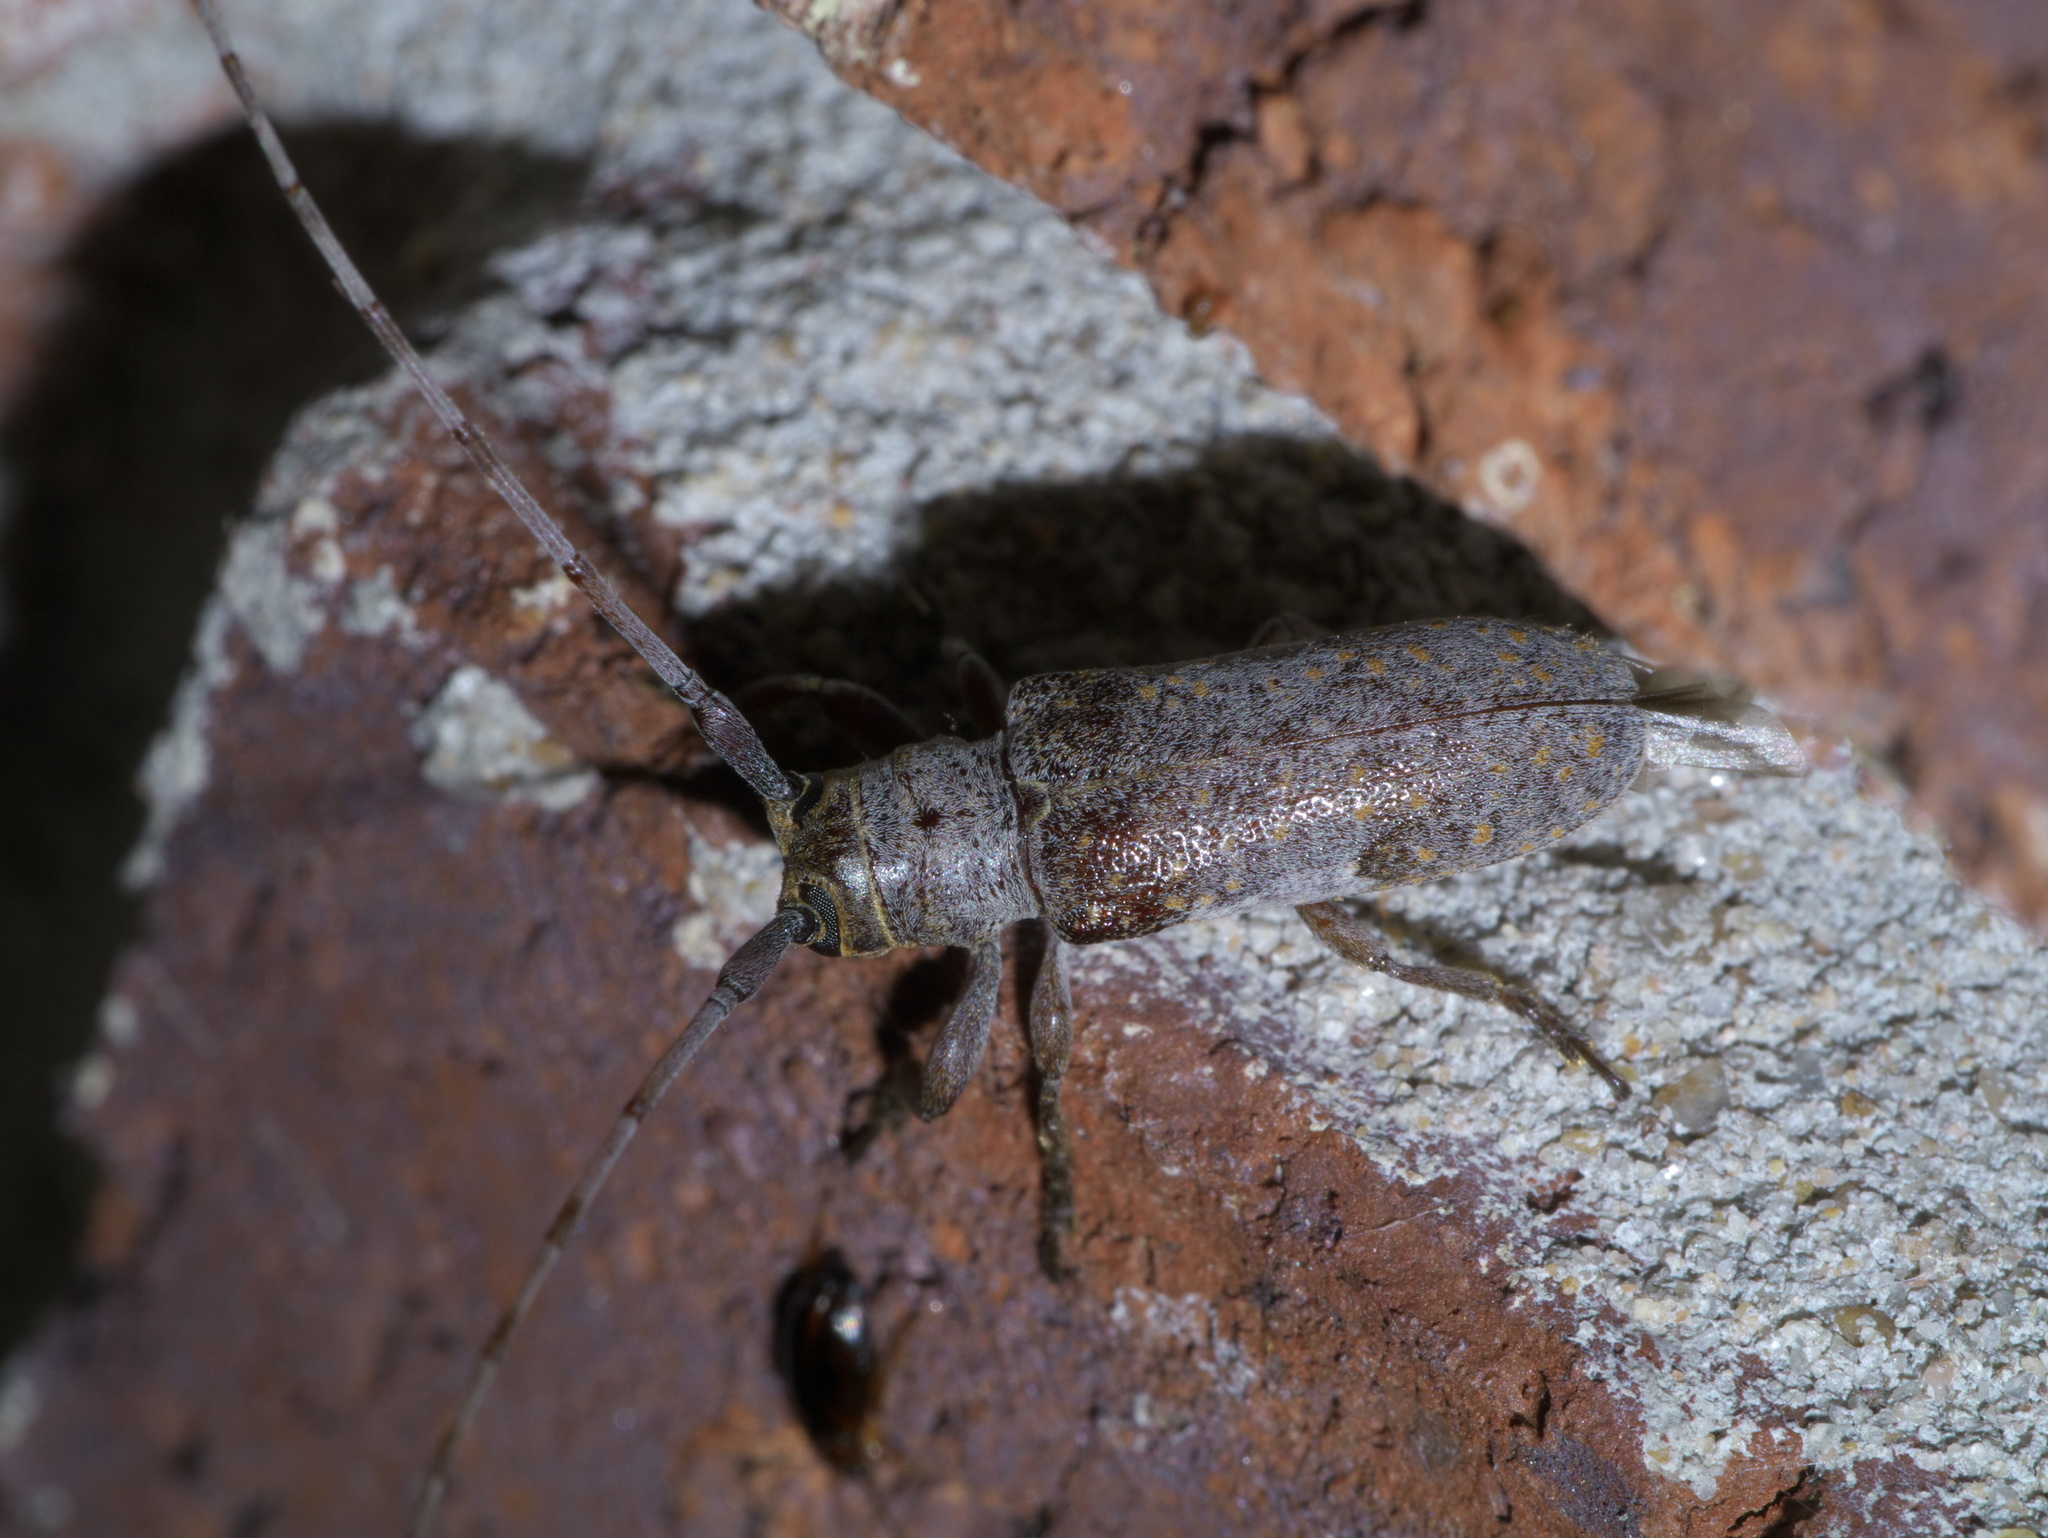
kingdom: Animalia
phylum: Arthropoda
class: Insecta
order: Coleoptera
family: Cerambycidae
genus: Oncideres
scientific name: Oncideres cingulata
